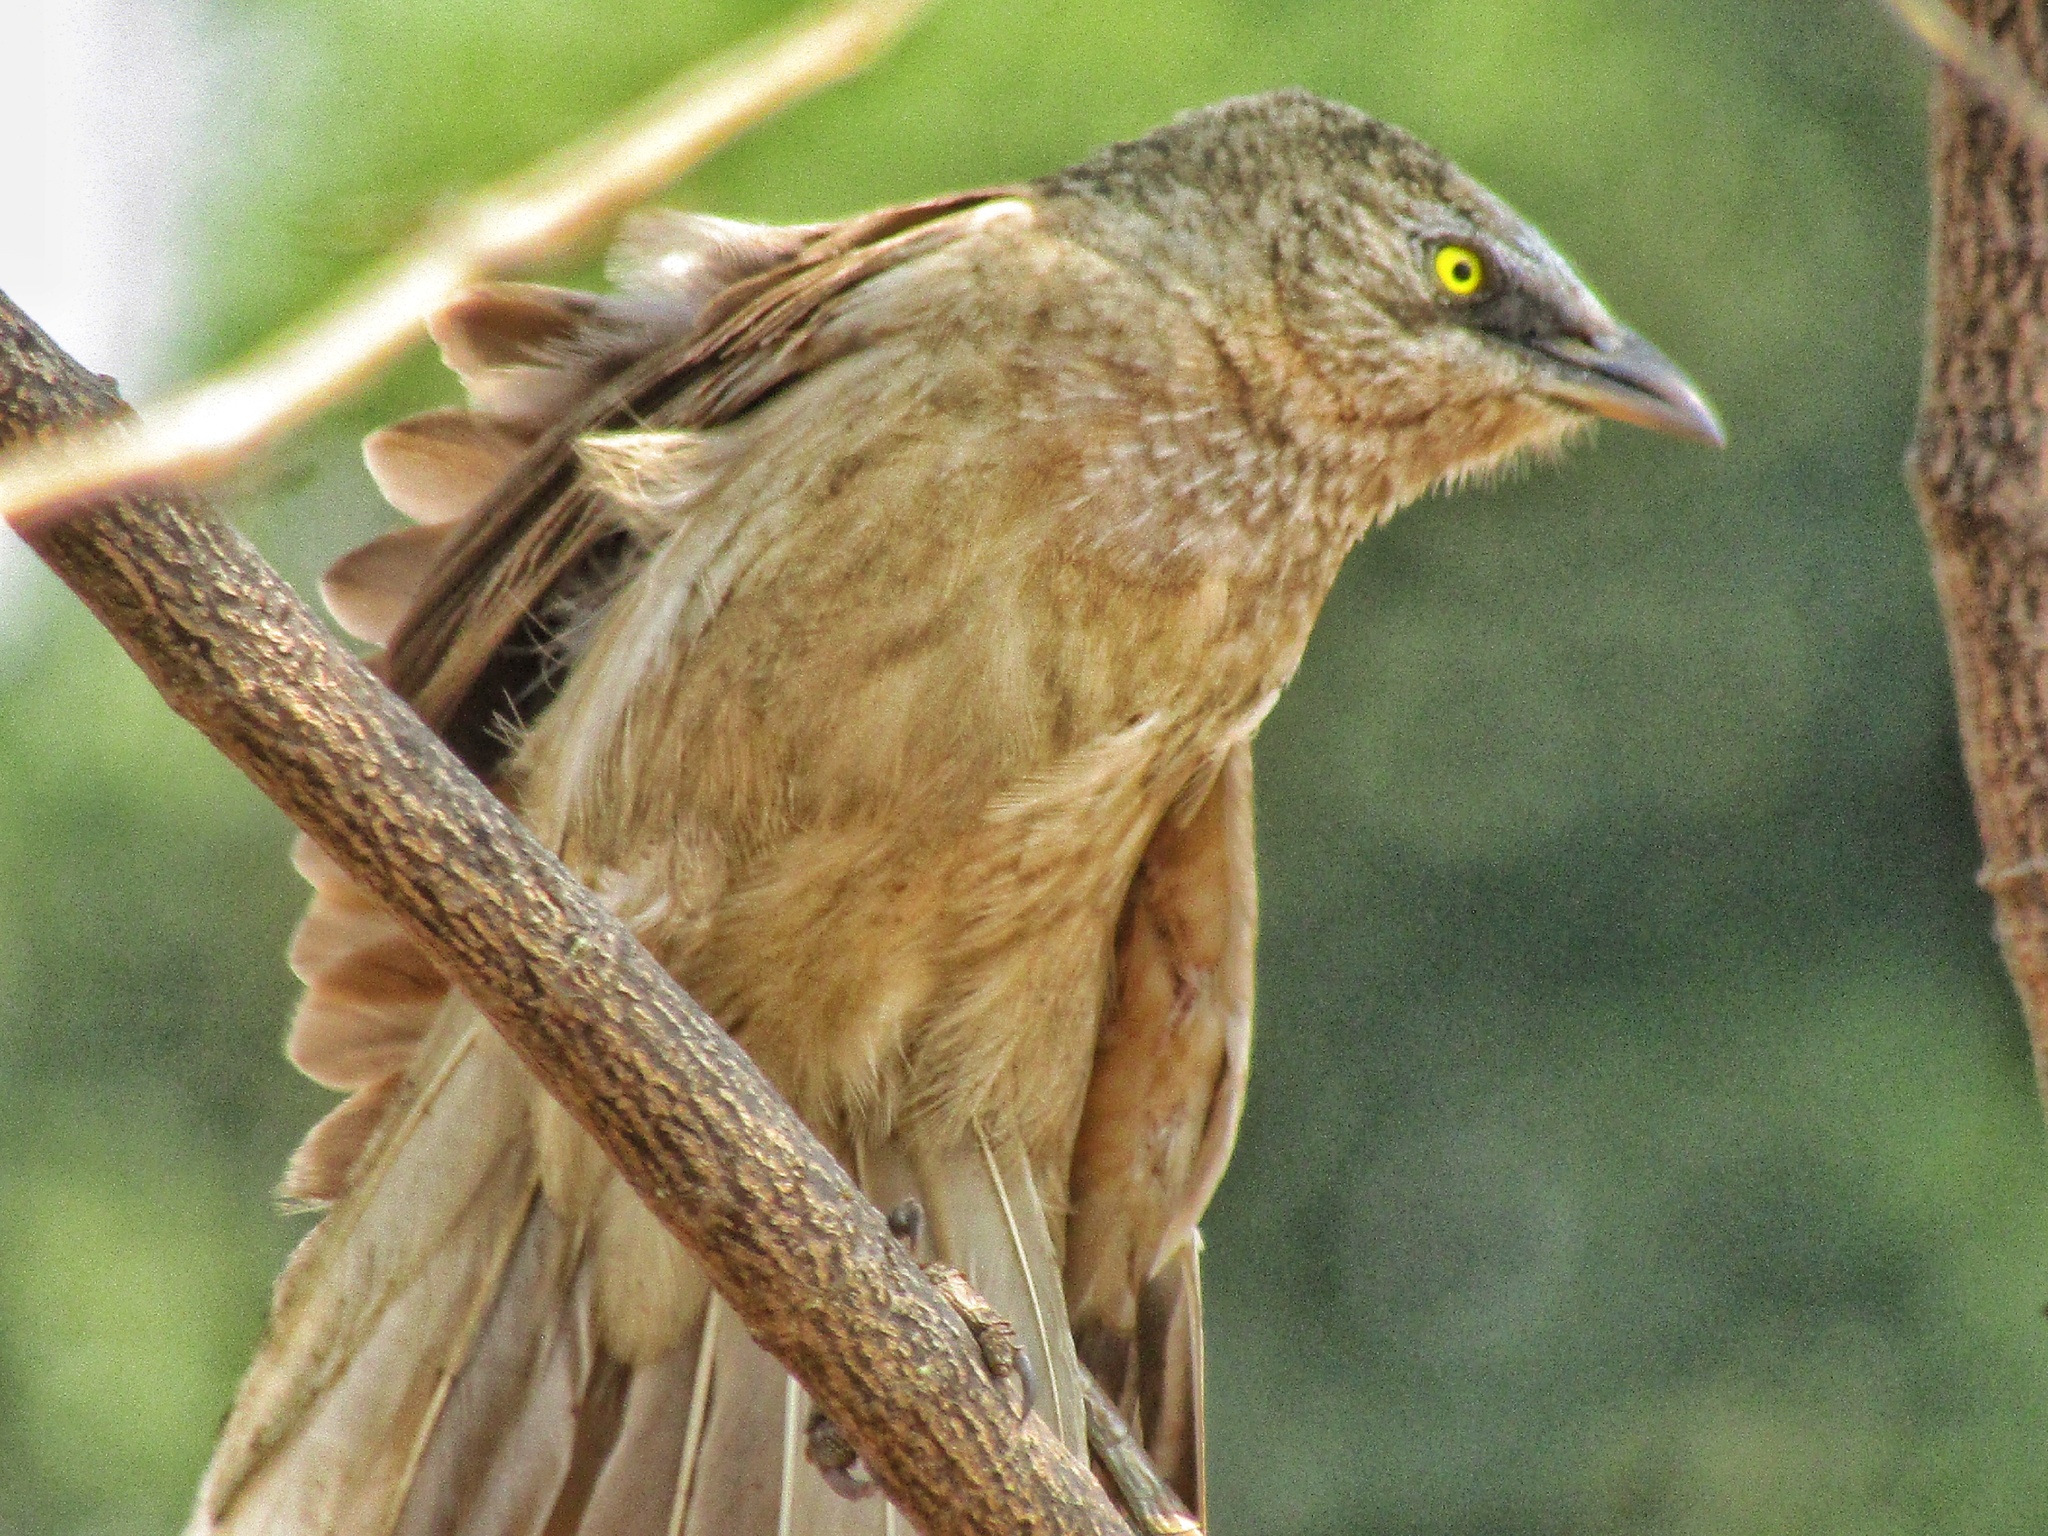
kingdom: Animalia
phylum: Chordata
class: Aves
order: Passeriformes
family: Leiothrichidae
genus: Turdoides
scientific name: Turdoides malcolmi
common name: Large grey babbler
